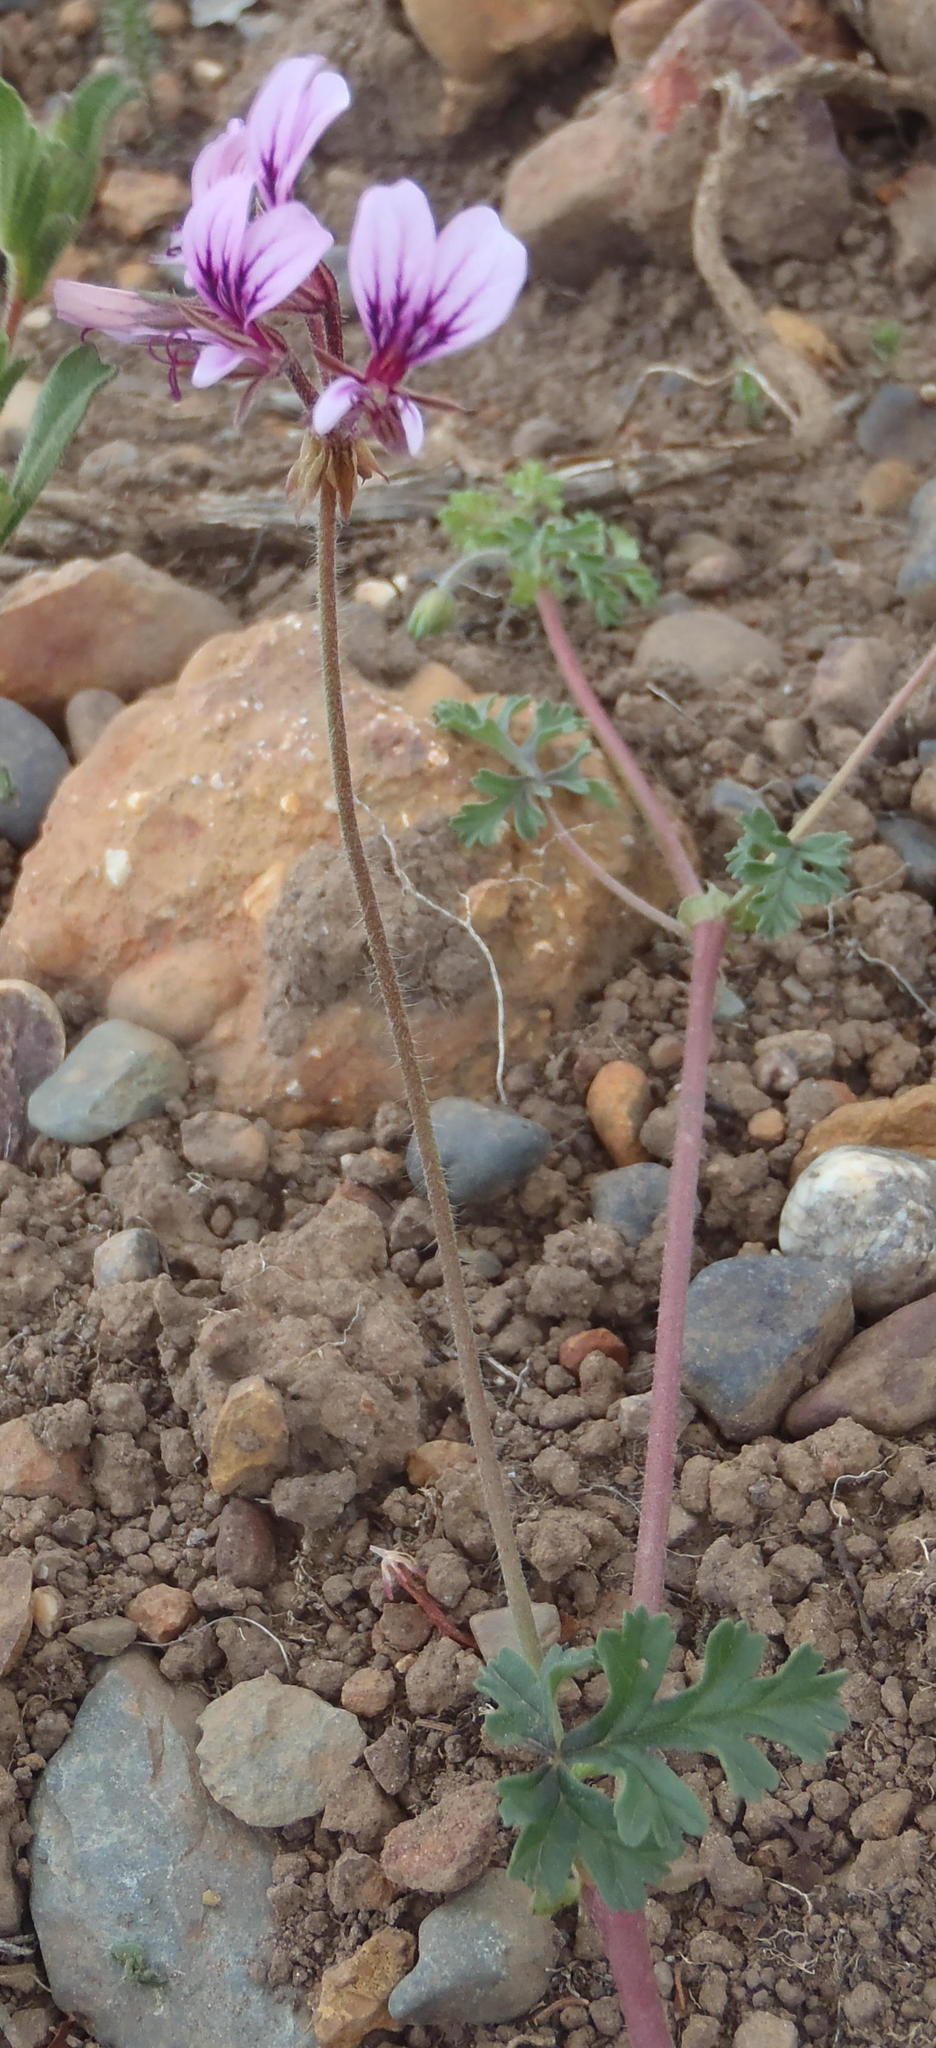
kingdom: Plantae
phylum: Tracheophyta
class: Magnoliopsida
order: Geraniales
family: Geraniaceae
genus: Pelargonium
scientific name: Pelargonium candicans
